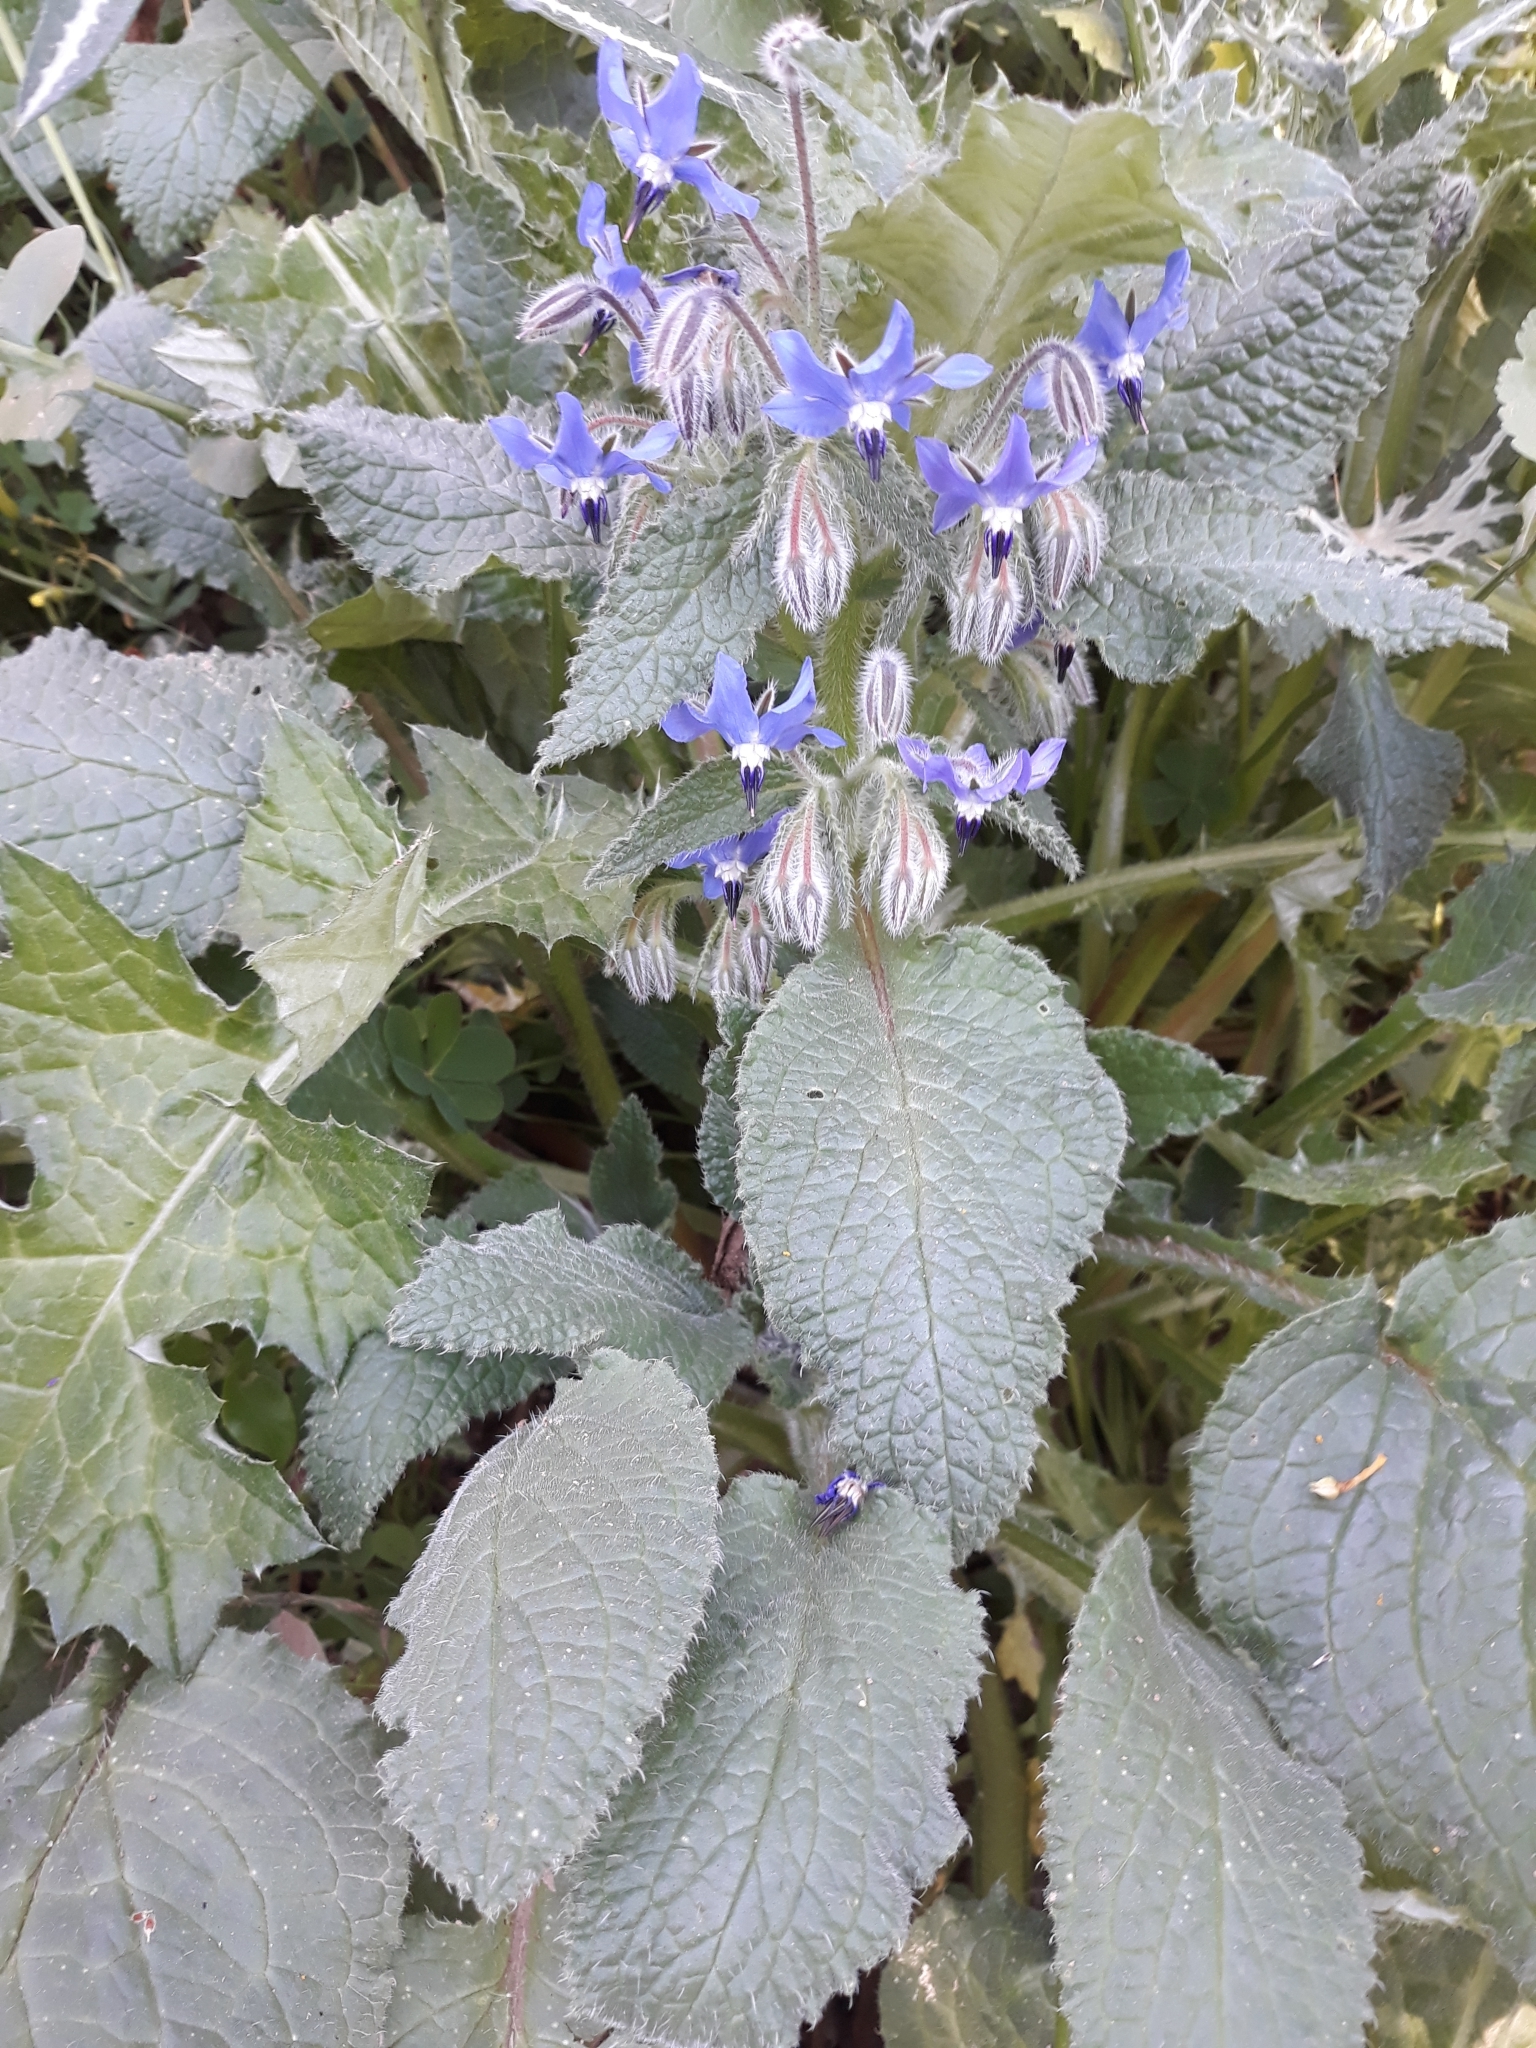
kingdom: Plantae
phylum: Tracheophyta
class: Magnoliopsida
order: Boraginales
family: Boraginaceae
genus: Borago
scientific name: Borago officinalis
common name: Borage
